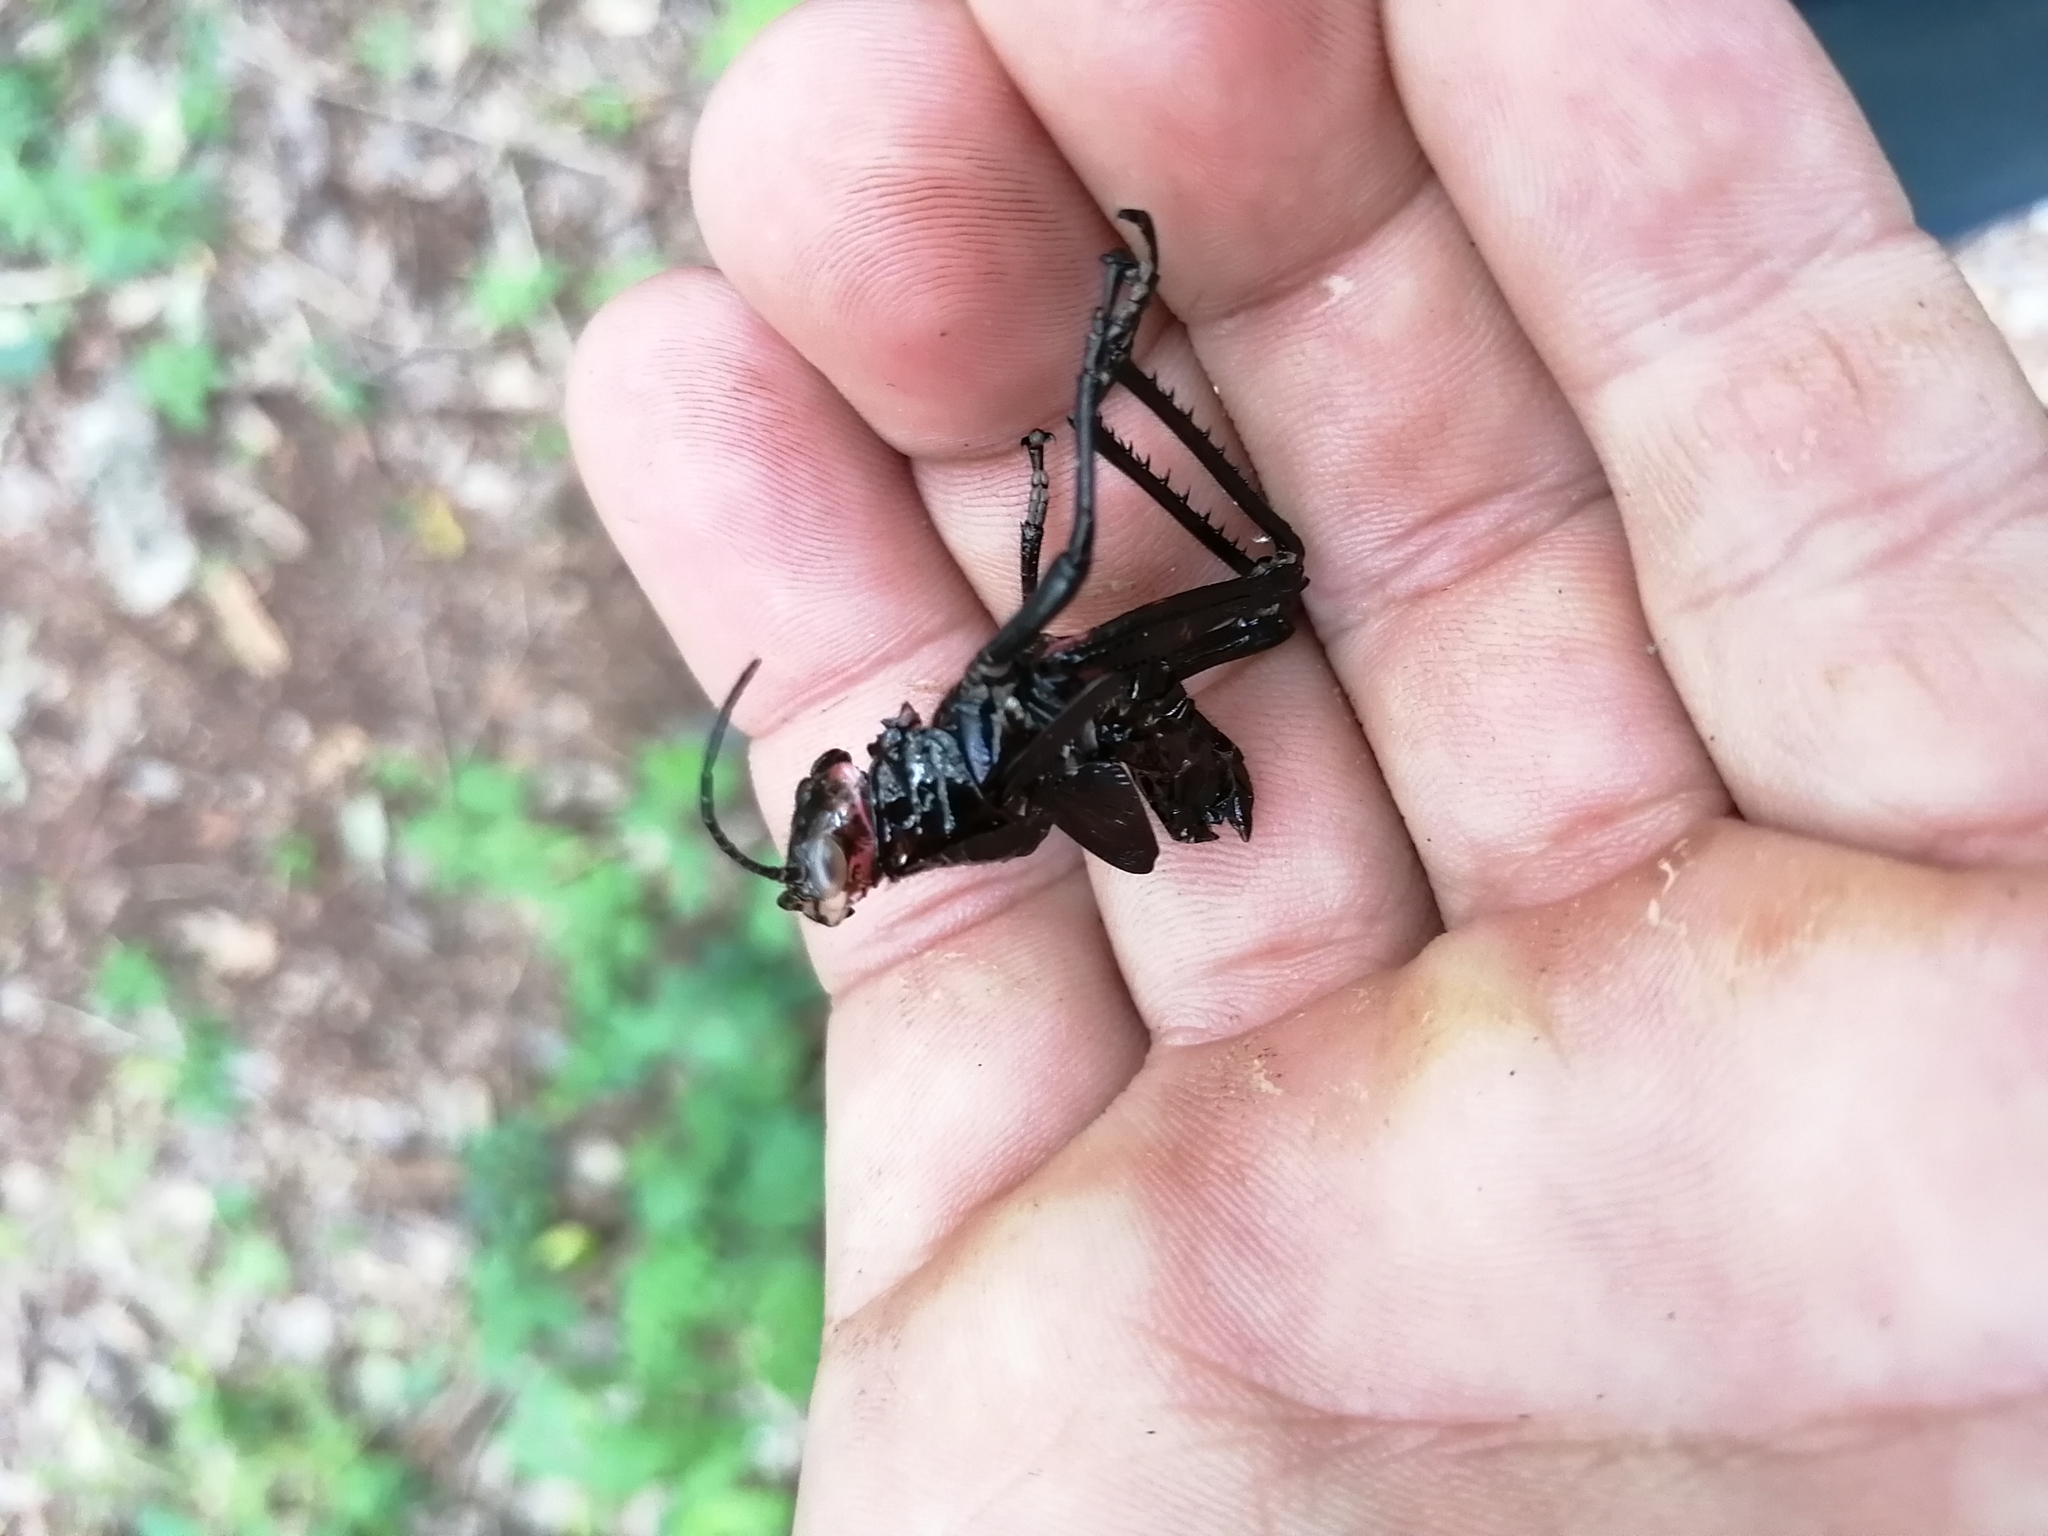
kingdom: Animalia
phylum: Arthropoda
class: Insecta
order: Orthoptera
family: Romaleidae
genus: Chromacris
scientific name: Chromacris miles
